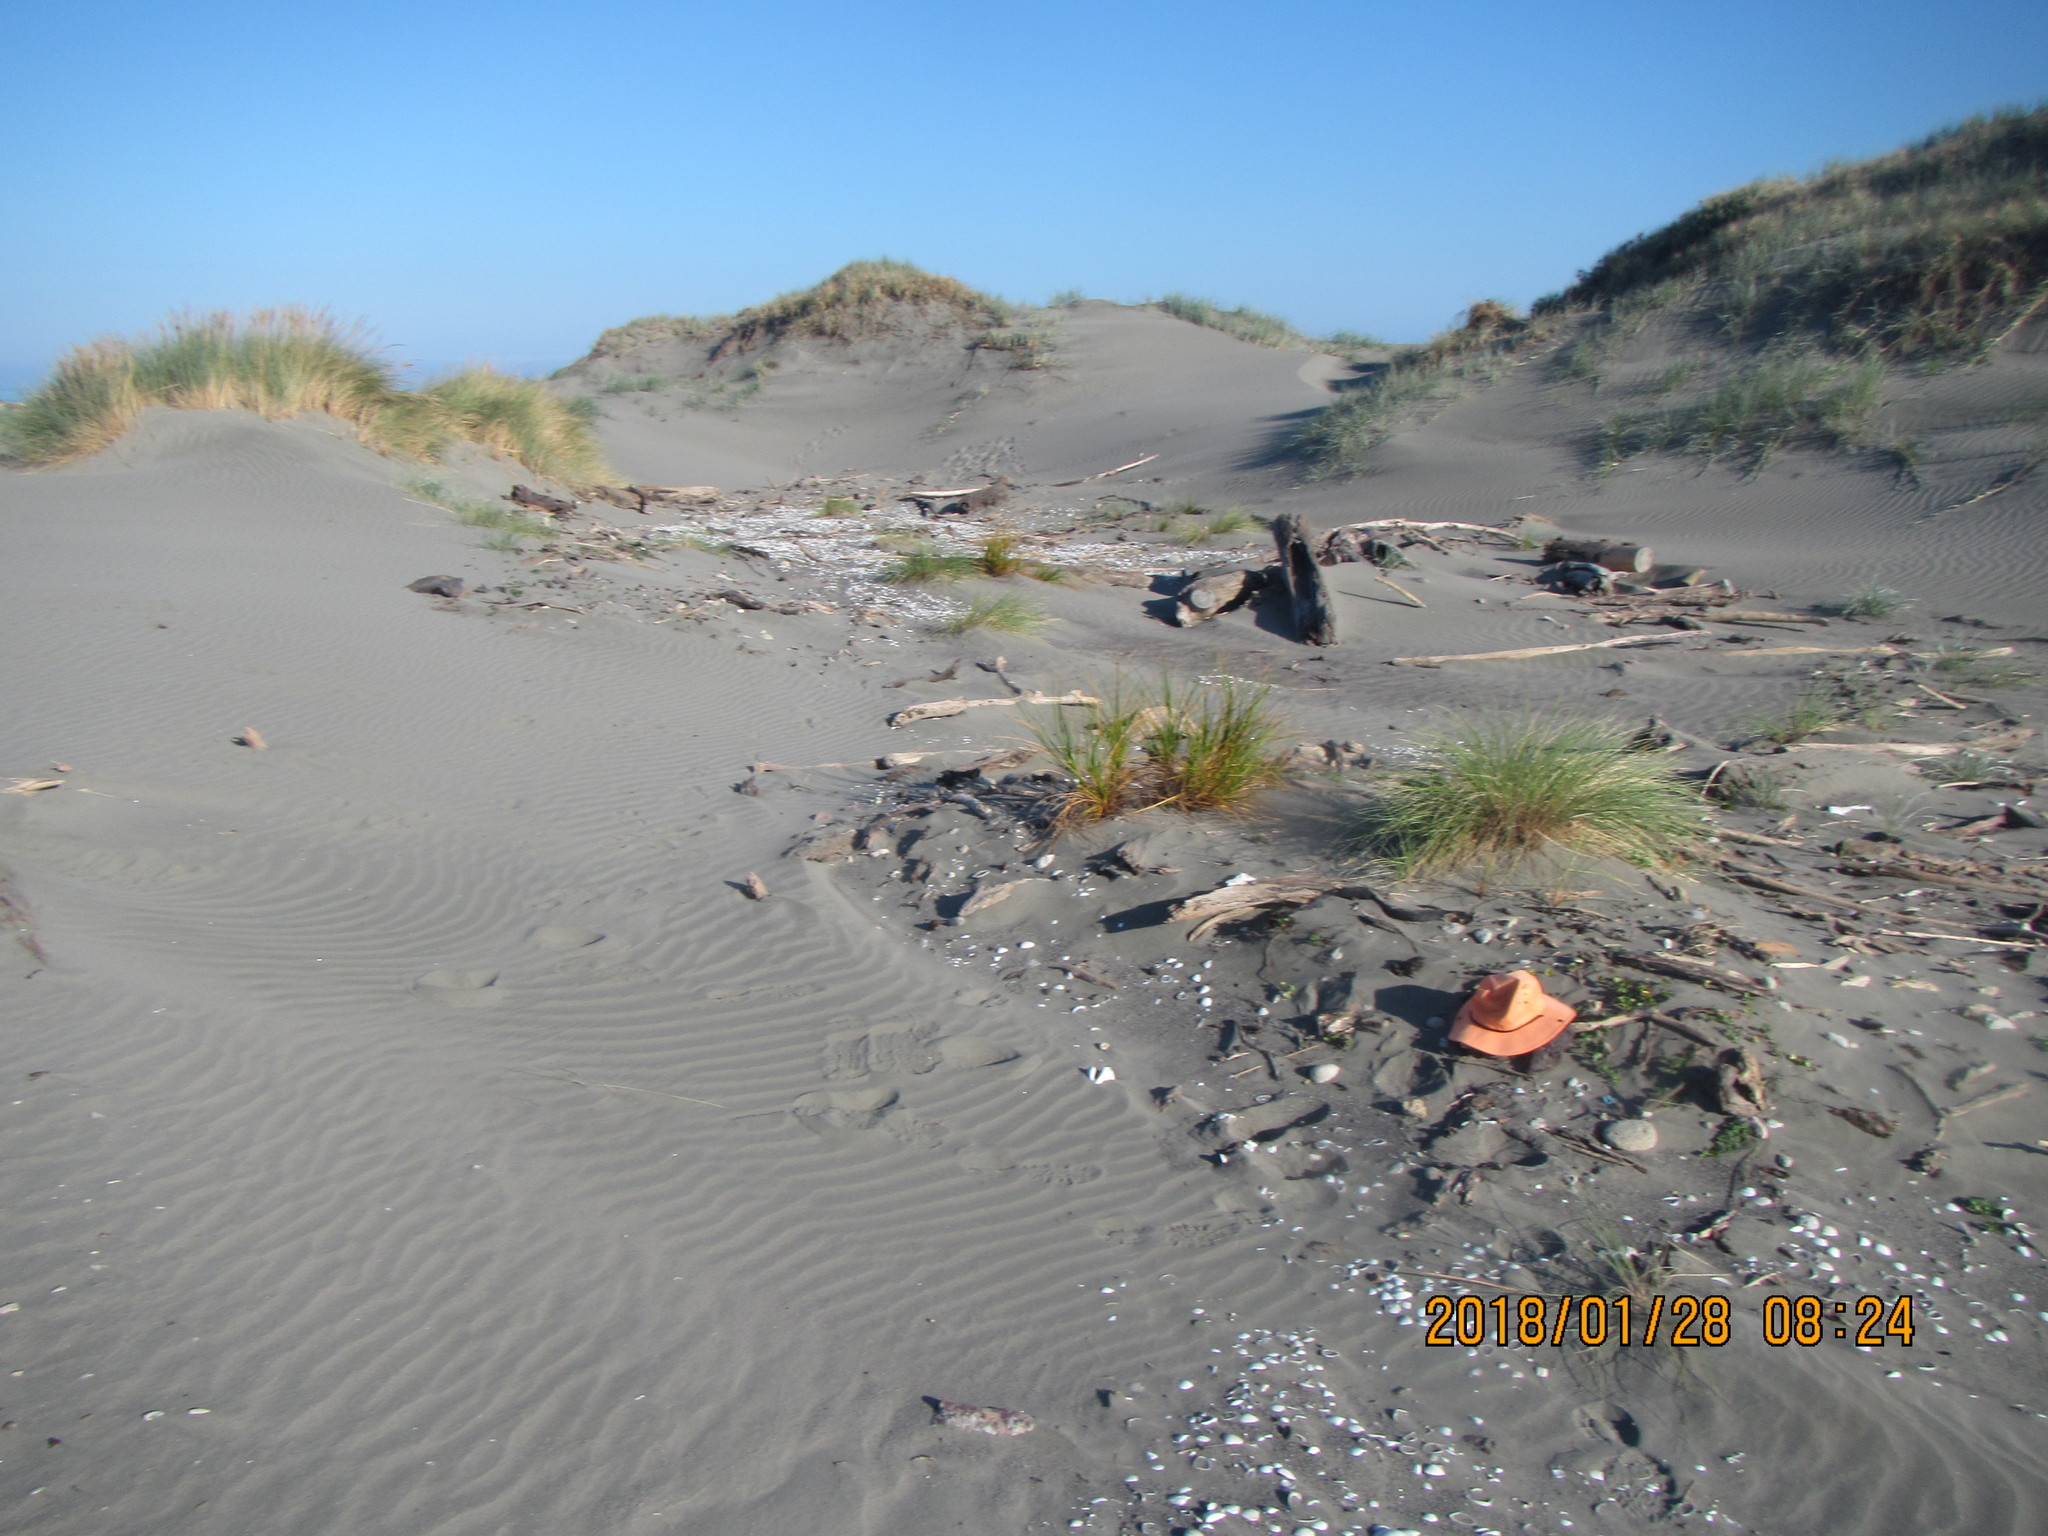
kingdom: Plantae
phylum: Tracheophyta
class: Magnoliopsida
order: Solanales
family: Convolvulaceae
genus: Calystegia
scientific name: Calystegia soldanella
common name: Sea bindweed
